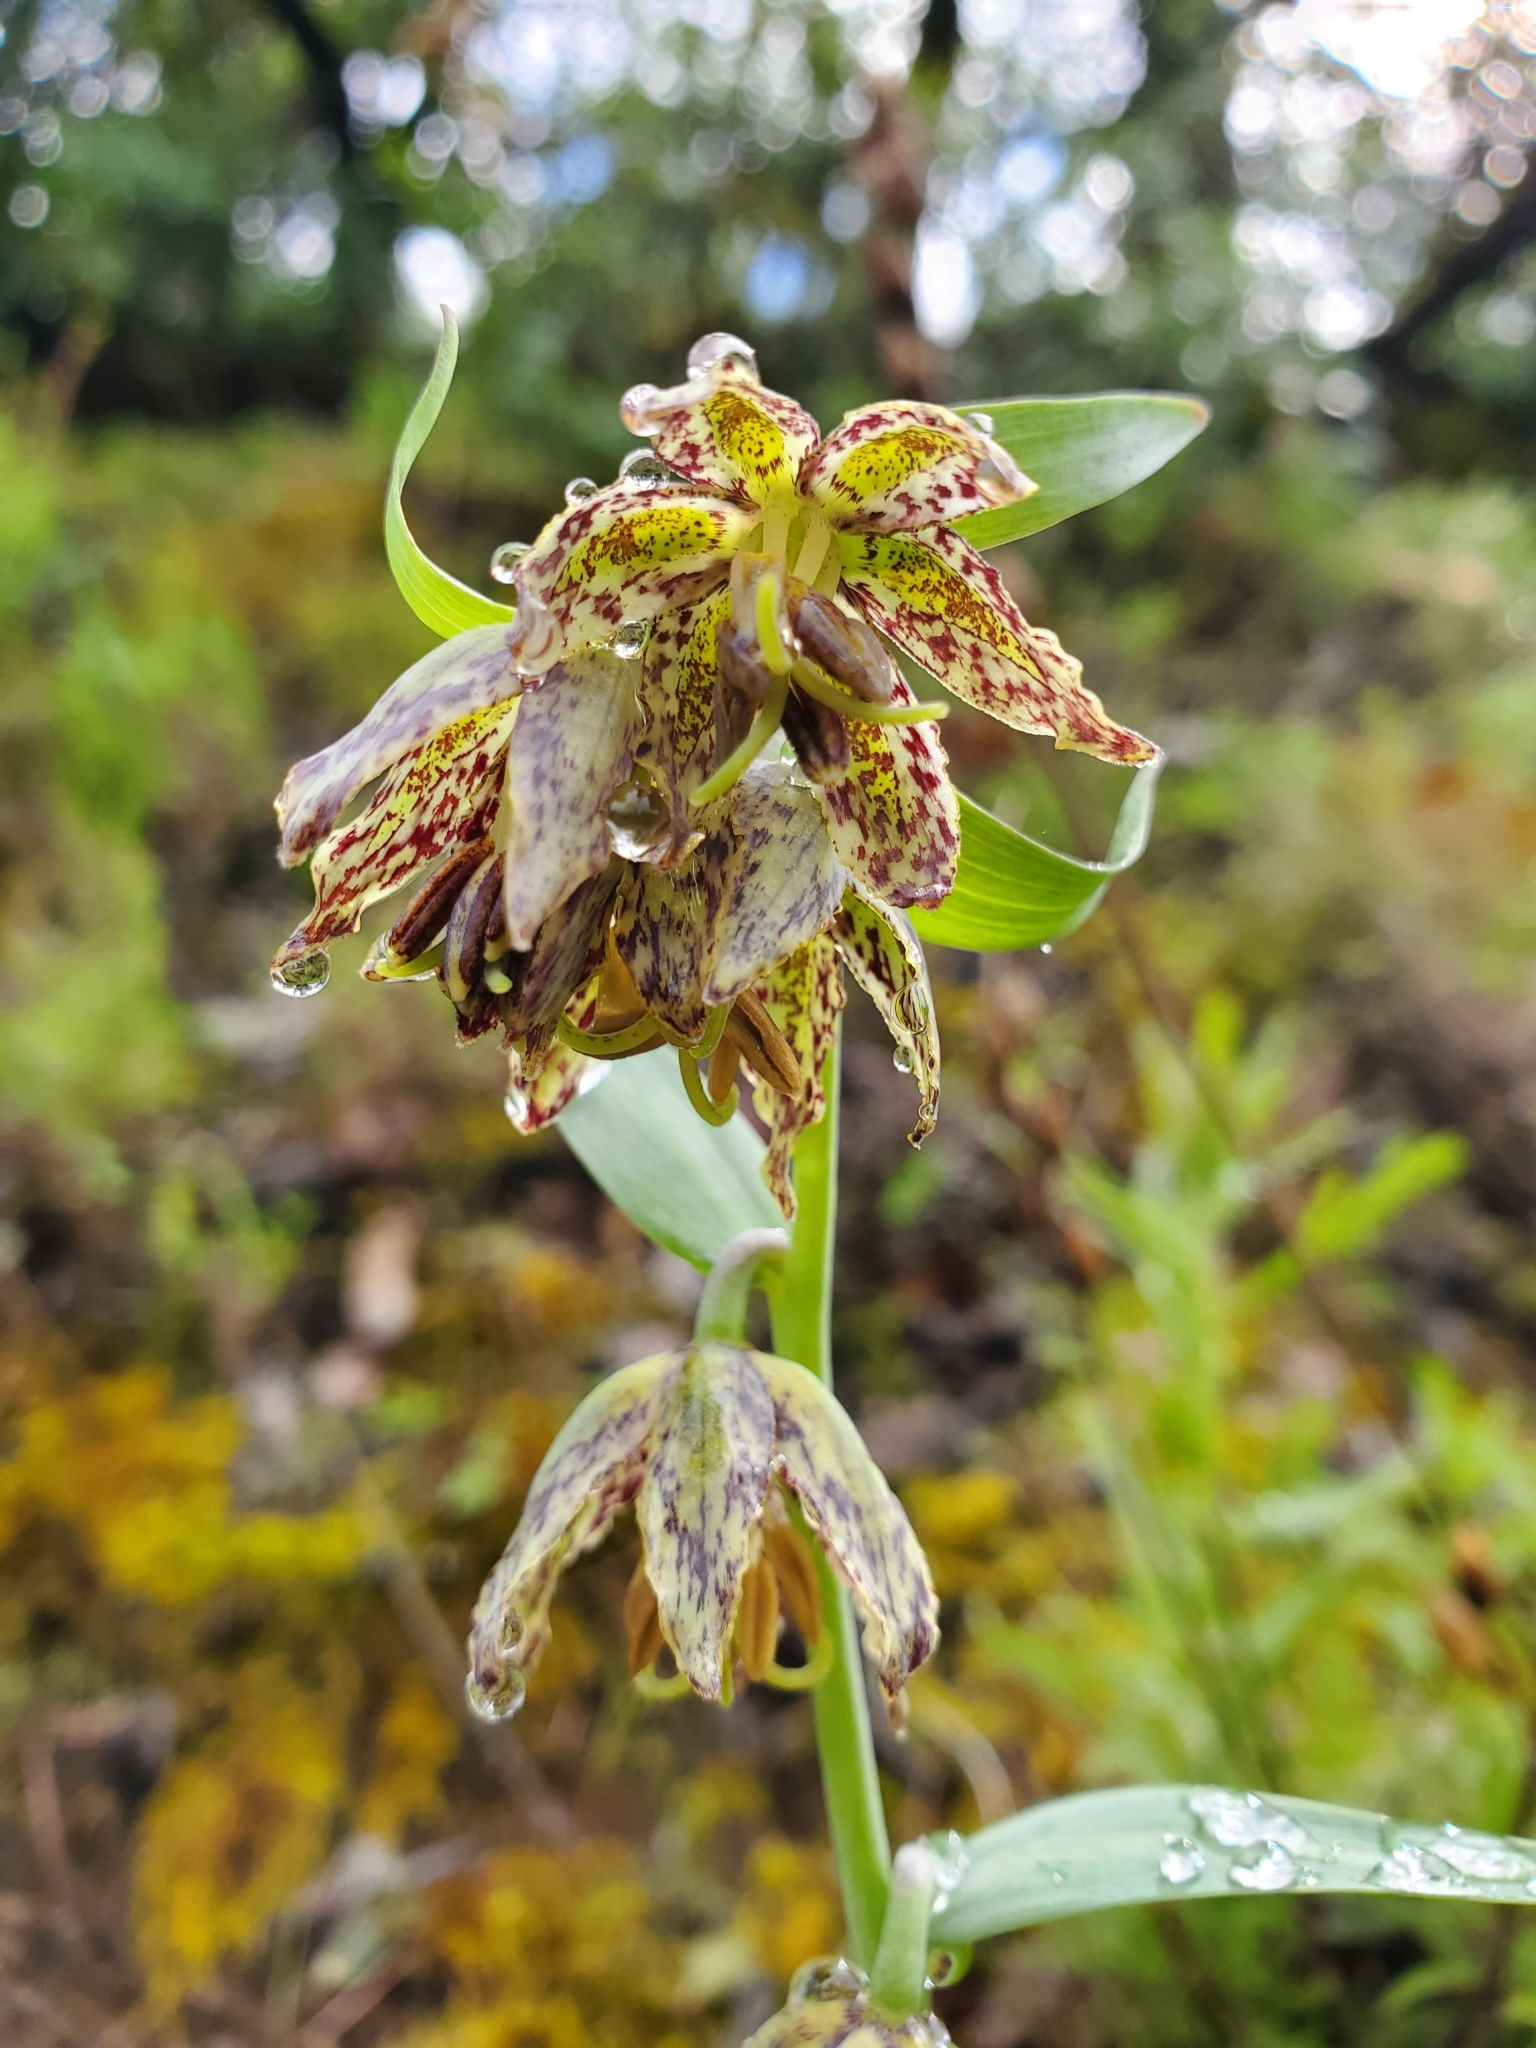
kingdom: Plantae
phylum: Tracheophyta
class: Liliopsida
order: Liliales
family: Liliaceae
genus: Fritillaria
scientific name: Fritillaria affinis
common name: Ojai fritillary
